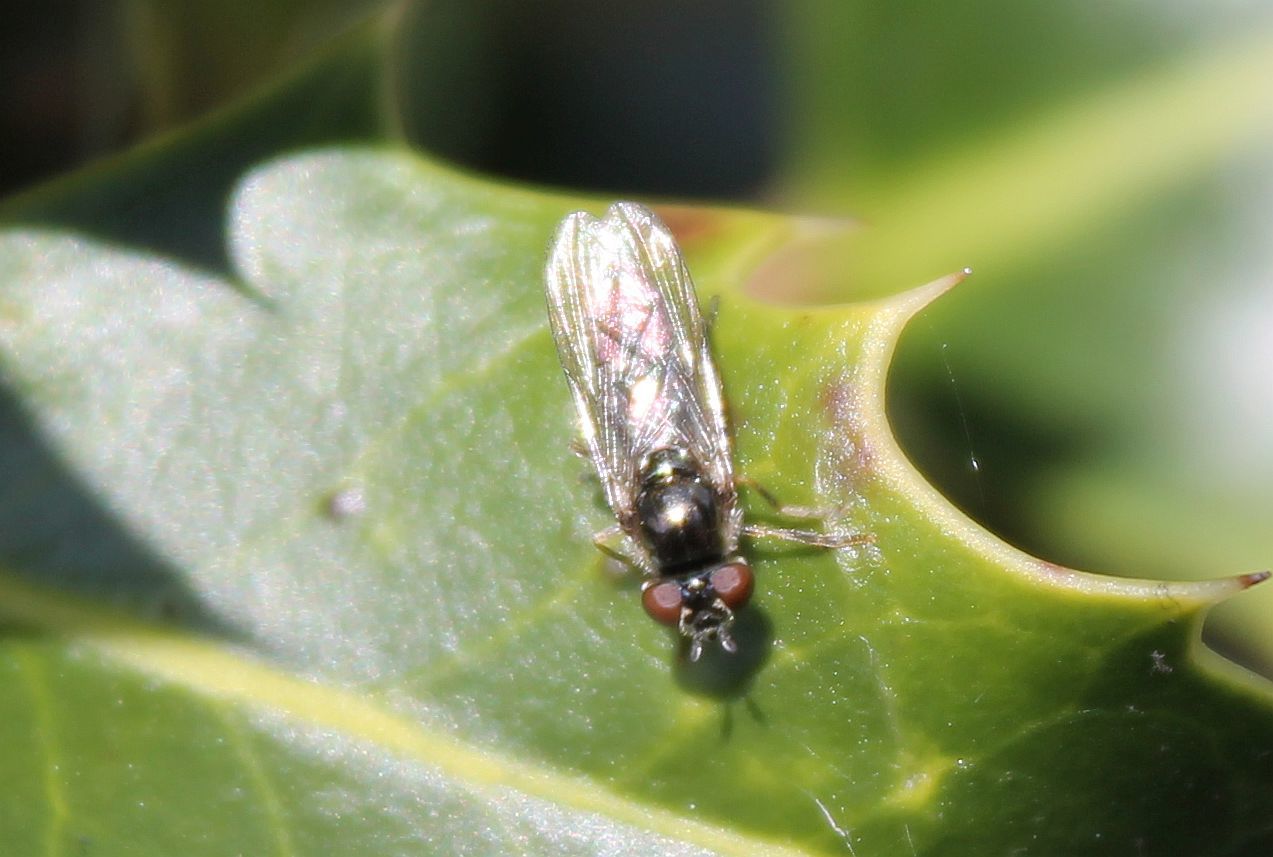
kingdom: Animalia
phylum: Arthropoda
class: Insecta
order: Diptera
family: Syrphidae
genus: Platycheirus
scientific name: Platycheirus albimanus
